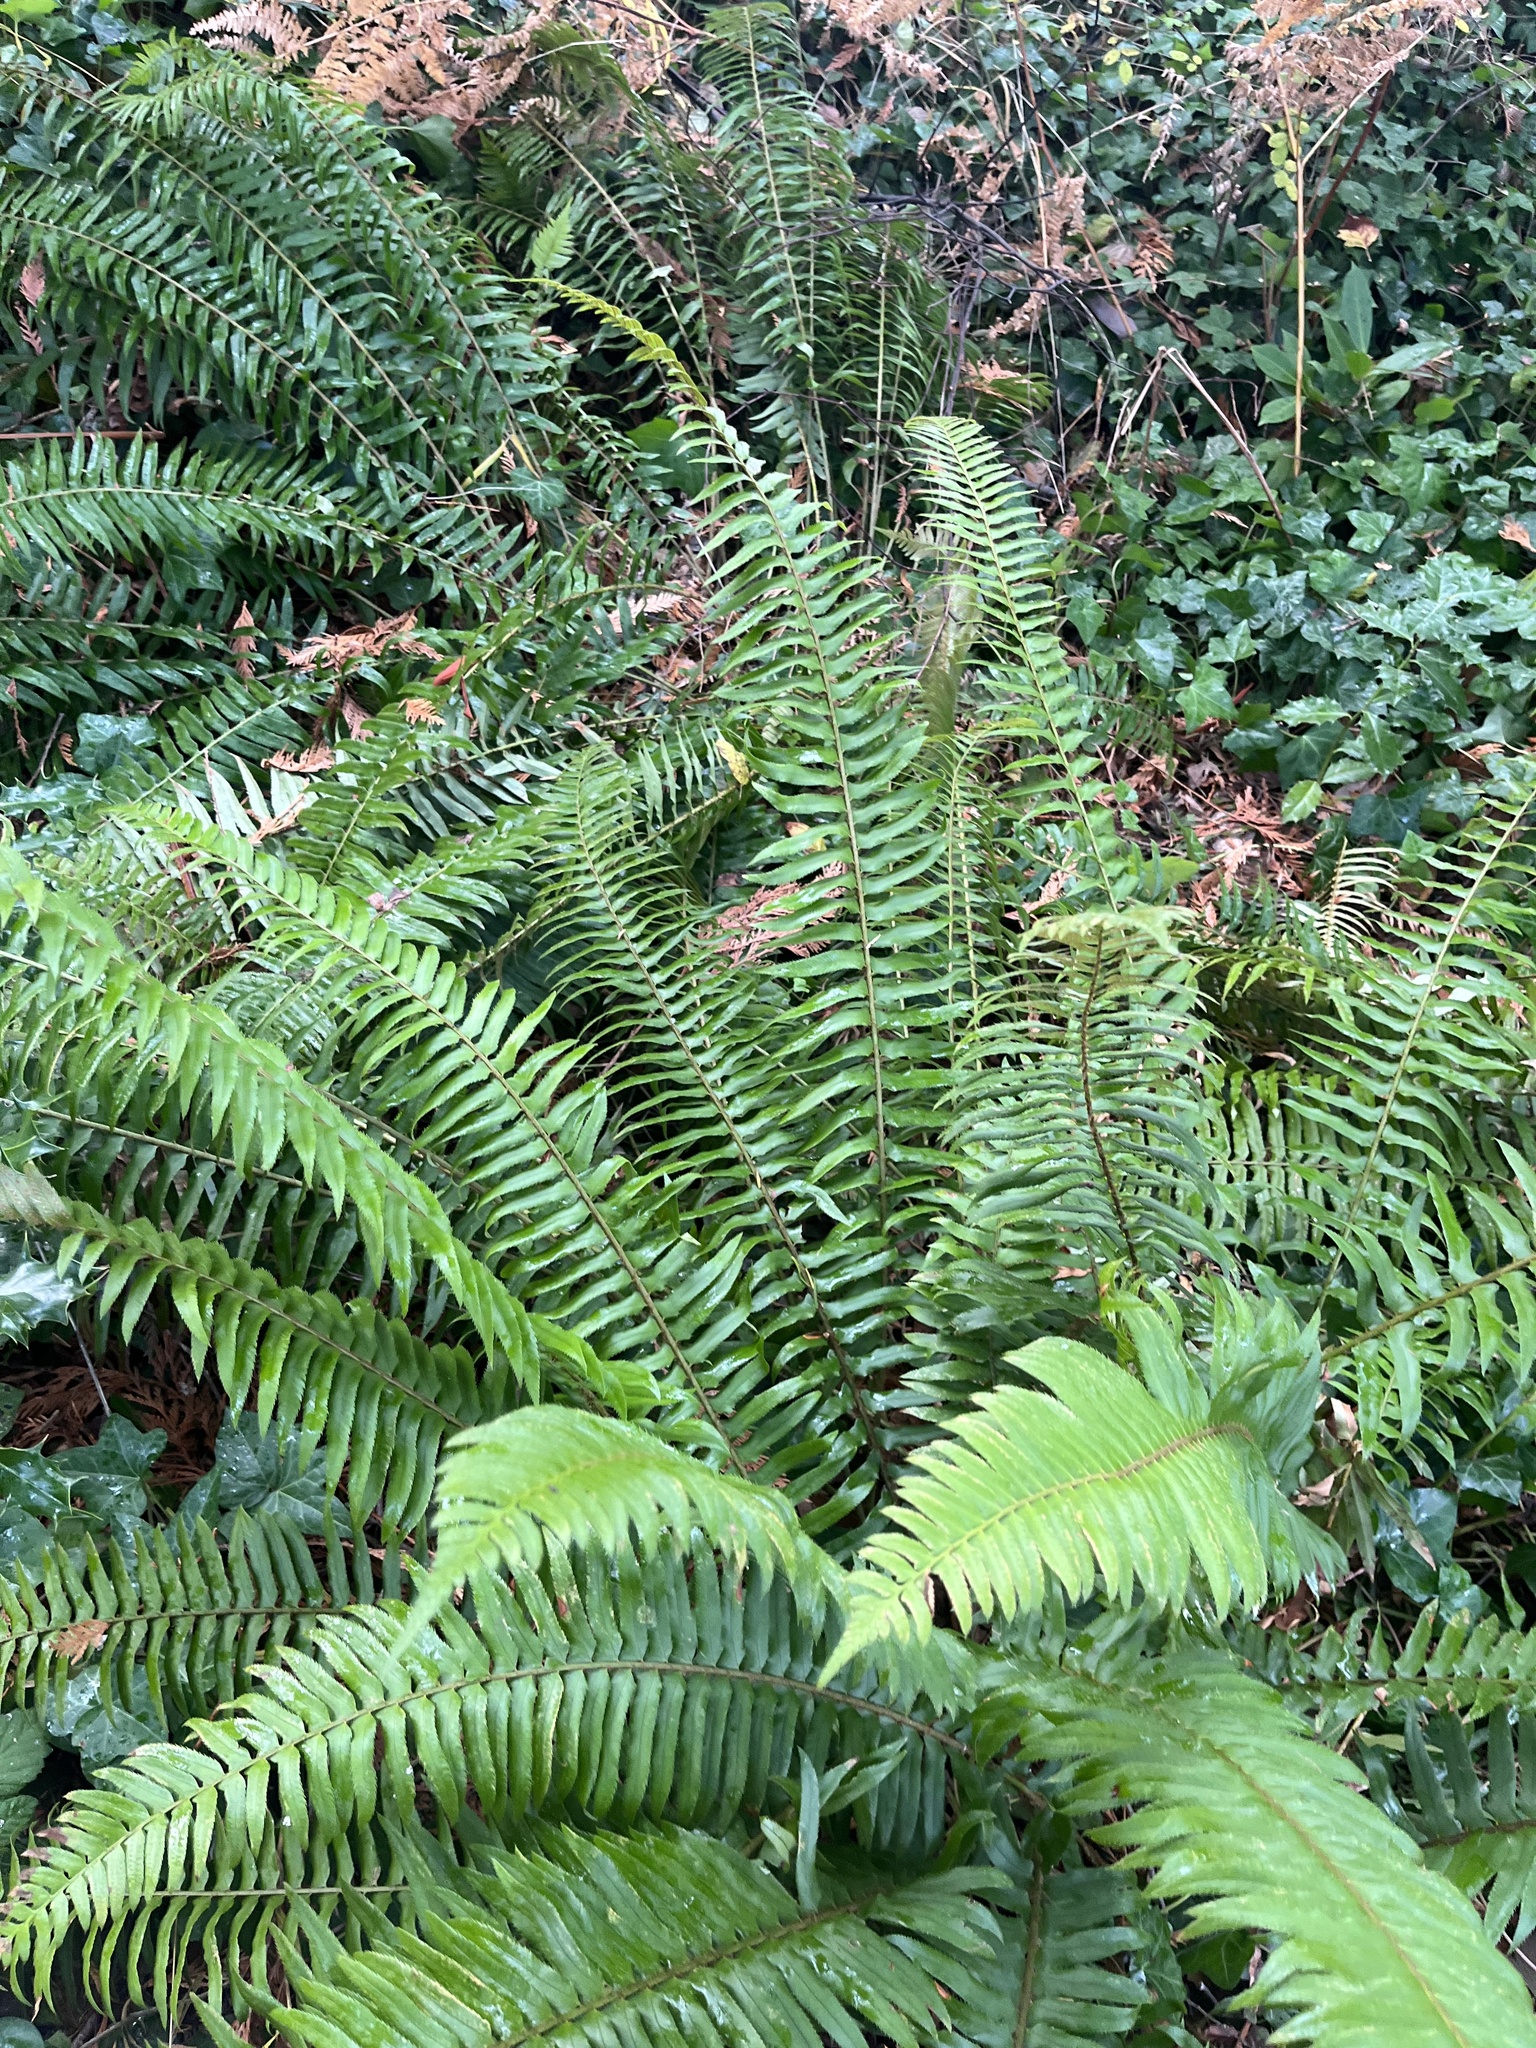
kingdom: Plantae
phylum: Tracheophyta
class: Polypodiopsida
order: Polypodiales
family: Dryopteridaceae
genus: Polystichum
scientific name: Polystichum munitum
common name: Western sword-fern
